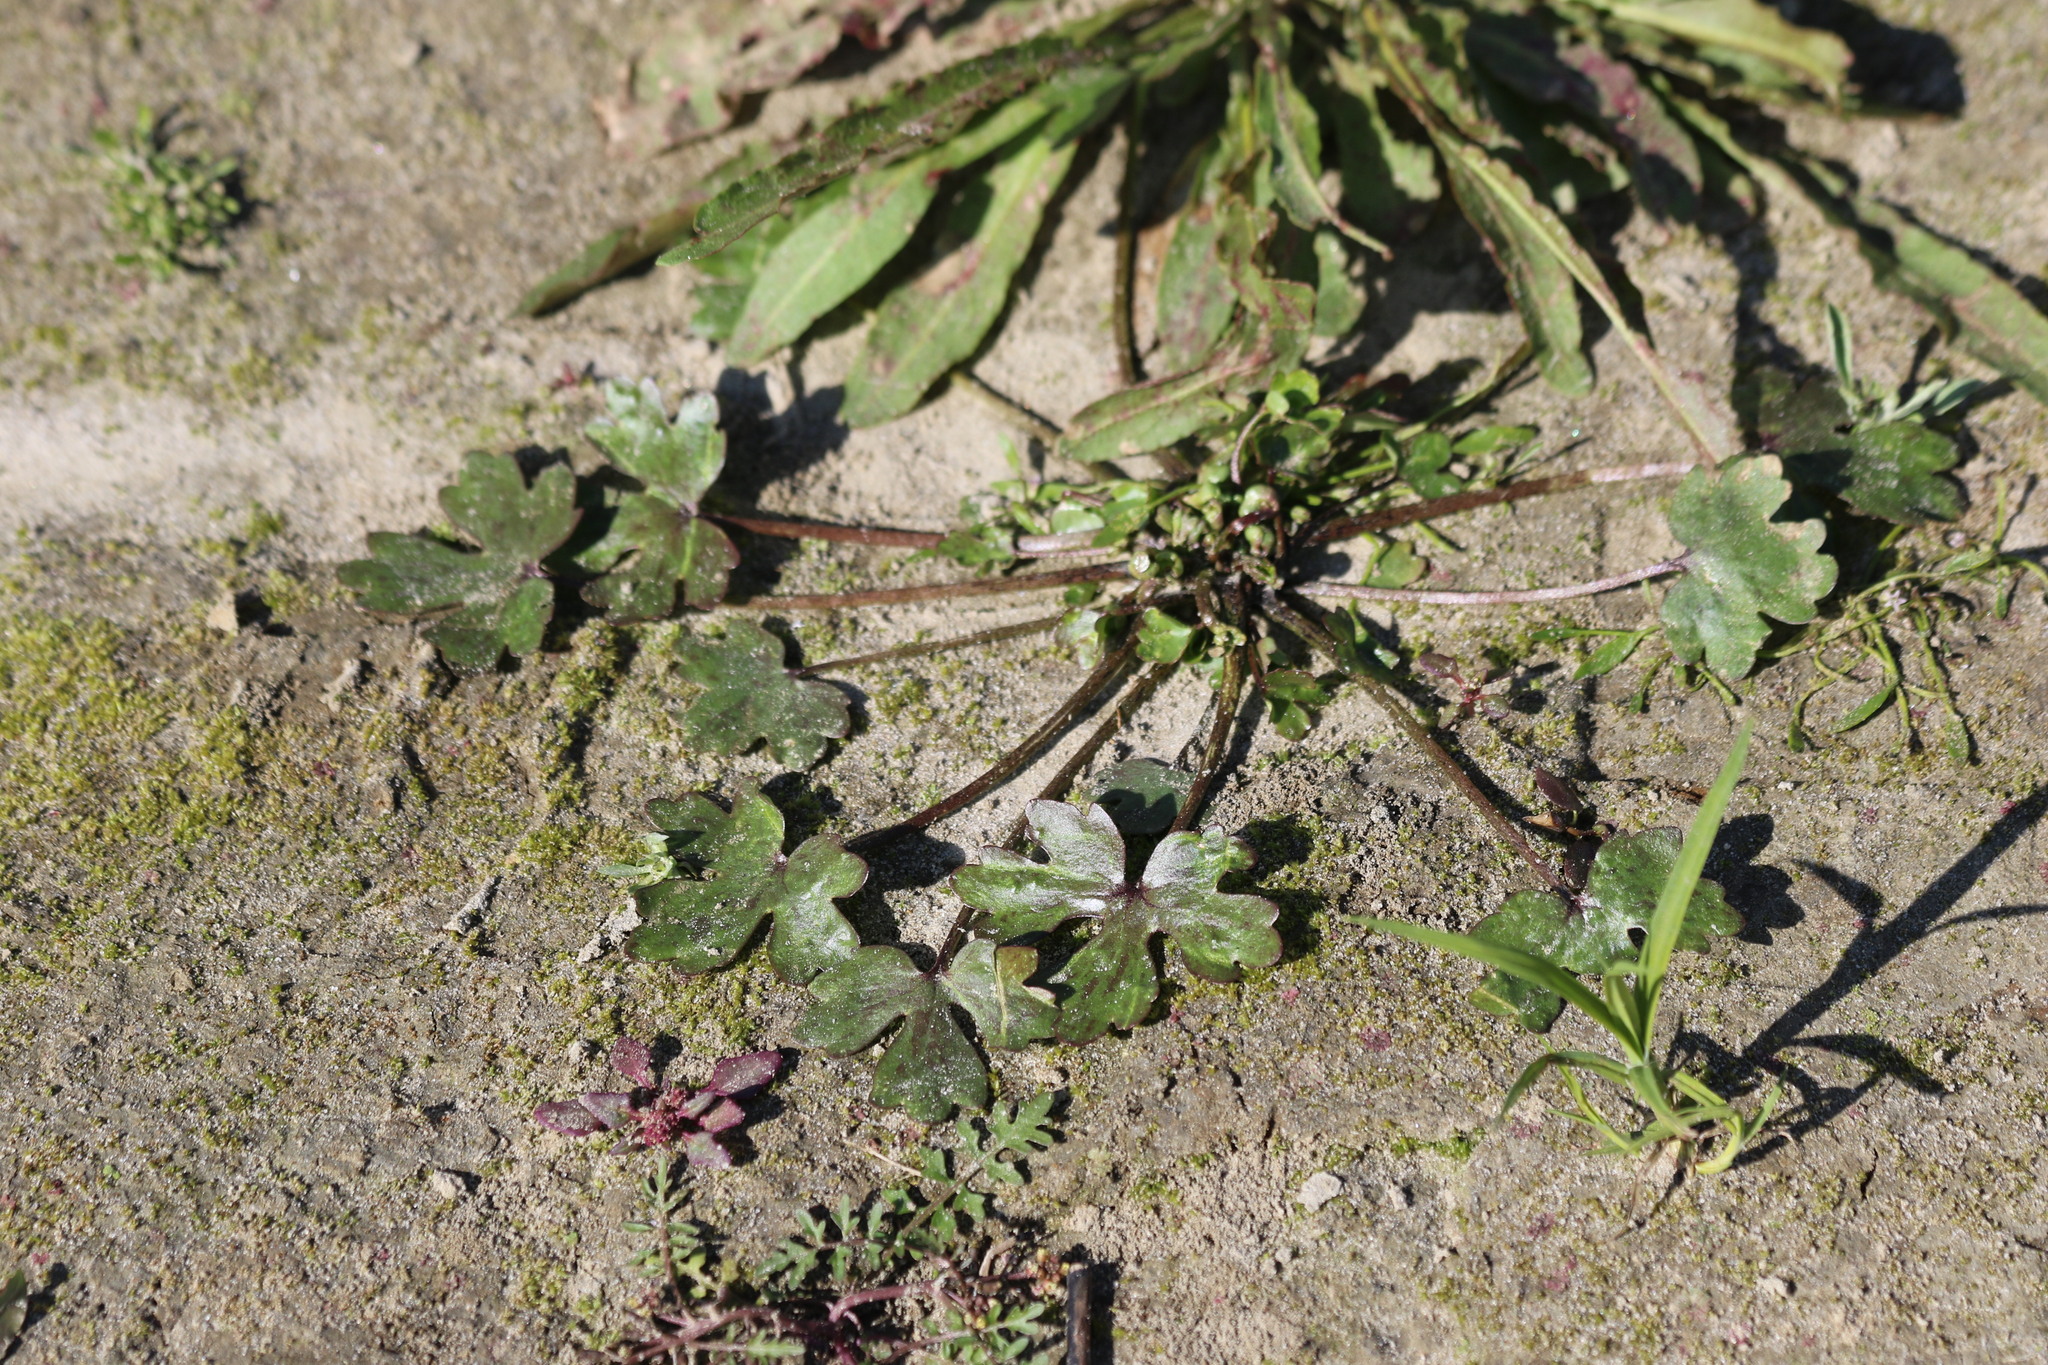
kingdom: Plantae
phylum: Tracheophyta
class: Magnoliopsida
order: Ranunculales
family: Ranunculaceae
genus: Ranunculus
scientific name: Ranunculus sceleratus
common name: Celery-leaved buttercup
